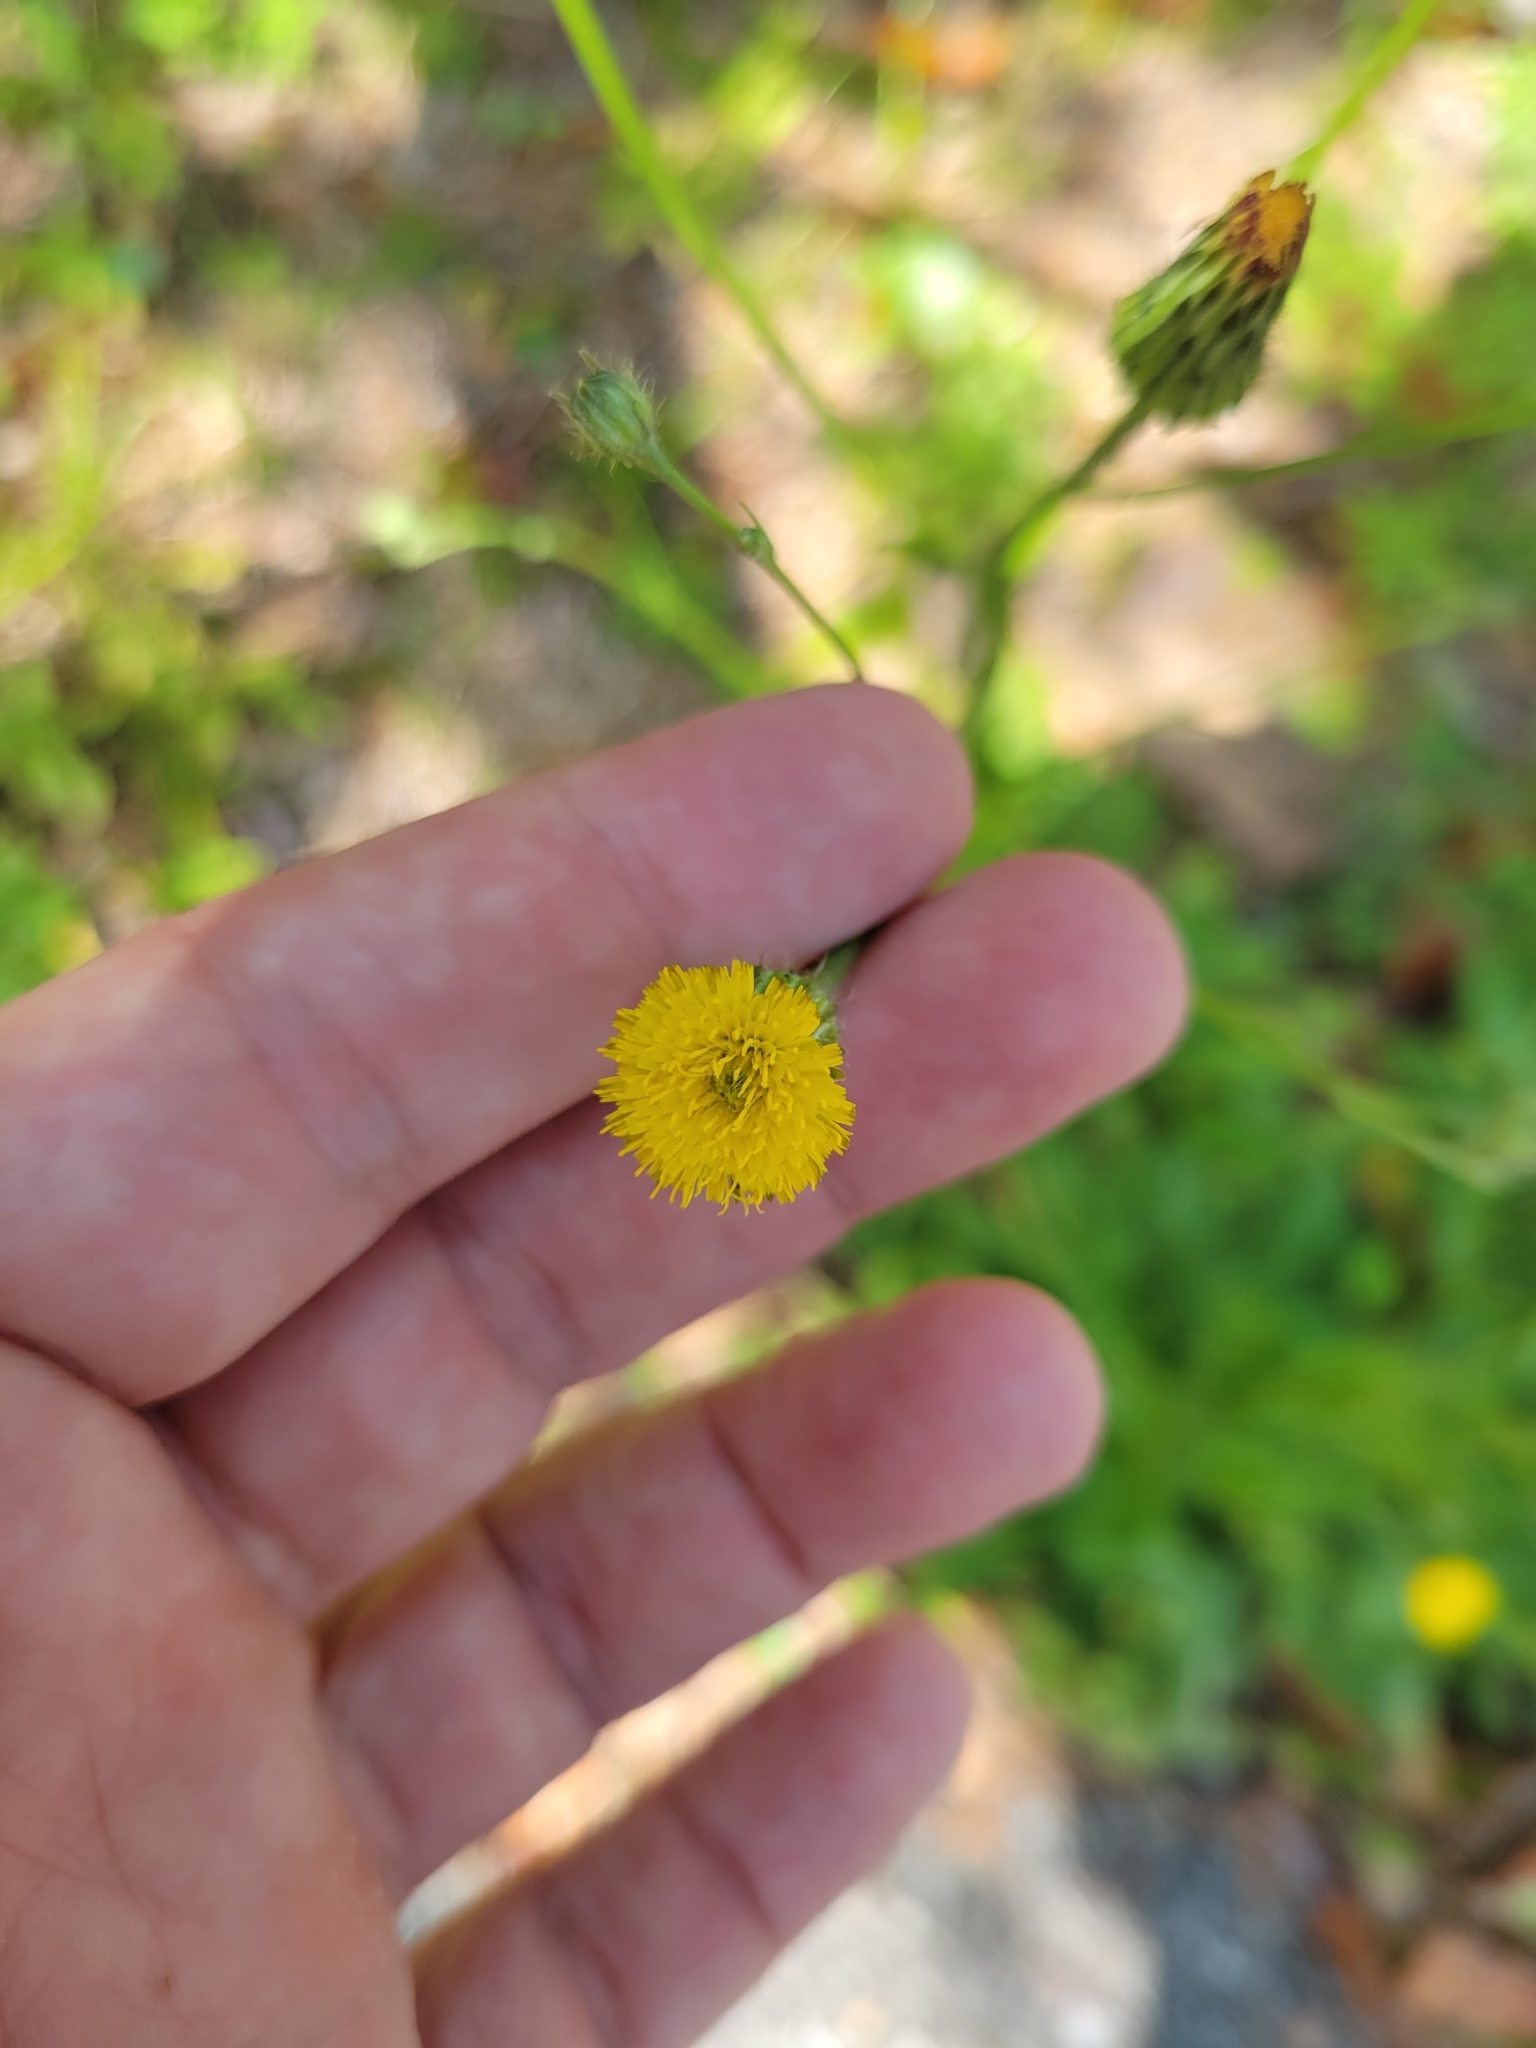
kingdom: Plantae
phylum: Tracheophyta
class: Magnoliopsida
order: Asterales
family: Asteraceae
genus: Hypochaeris
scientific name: Hypochaeris chillensis
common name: Brazilian cat's ear
